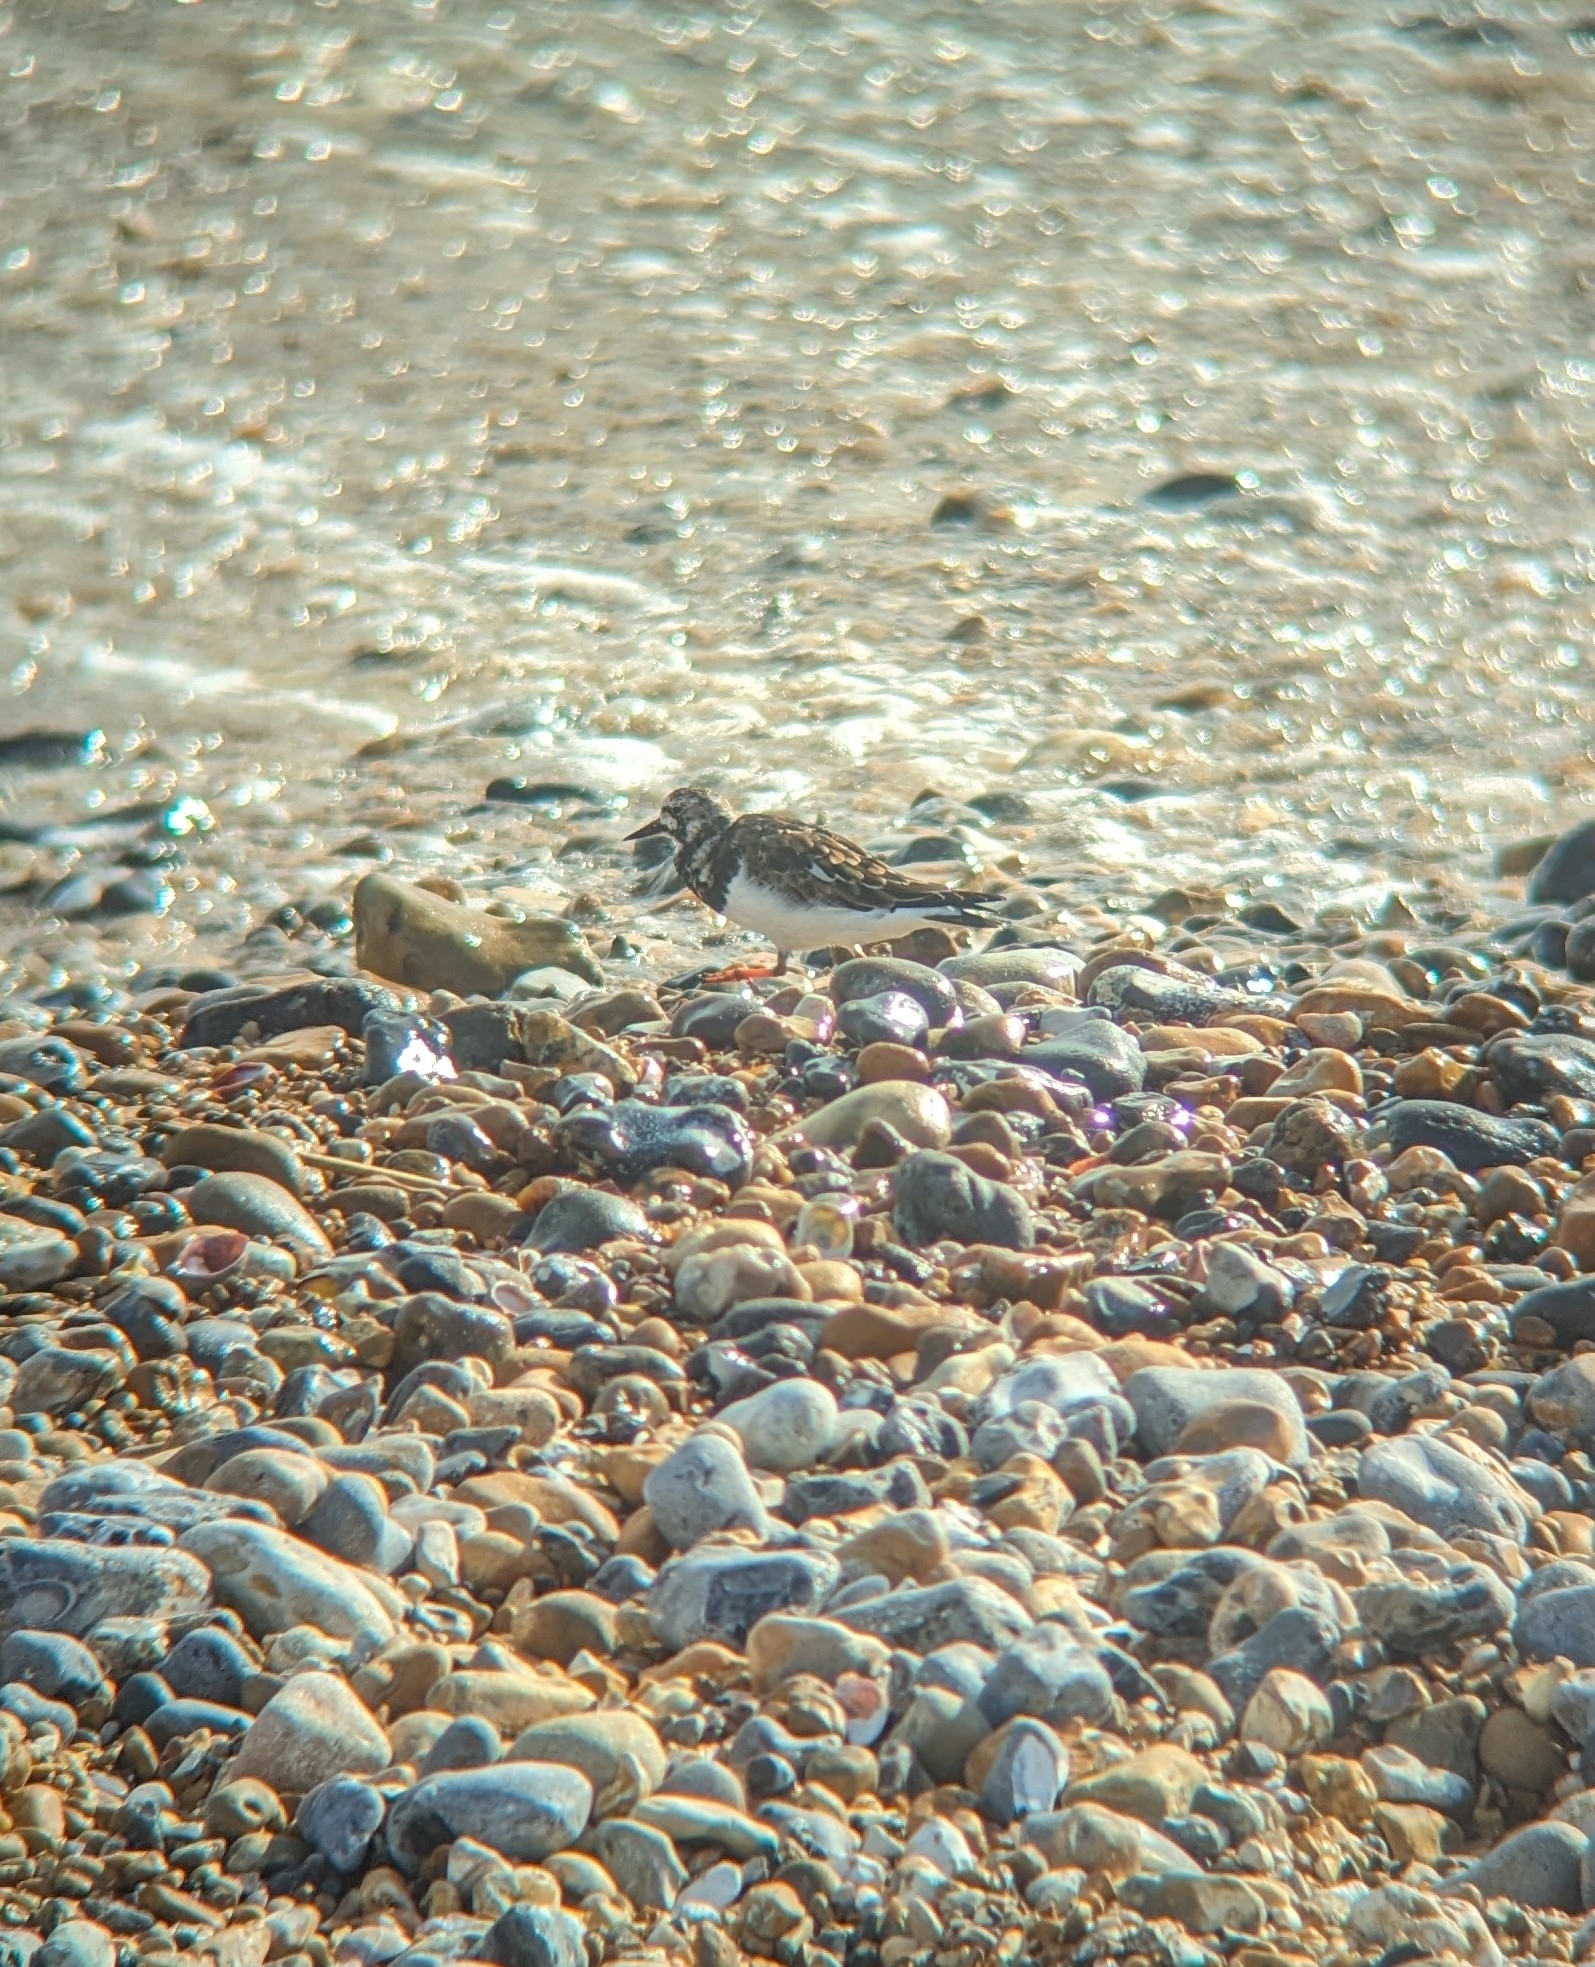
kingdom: Animalia
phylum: Chordata
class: Aves
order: Charadriiformes
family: Scolopacidae
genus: Arenaria
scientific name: Arenaria interpres
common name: Ruddy turnstone
